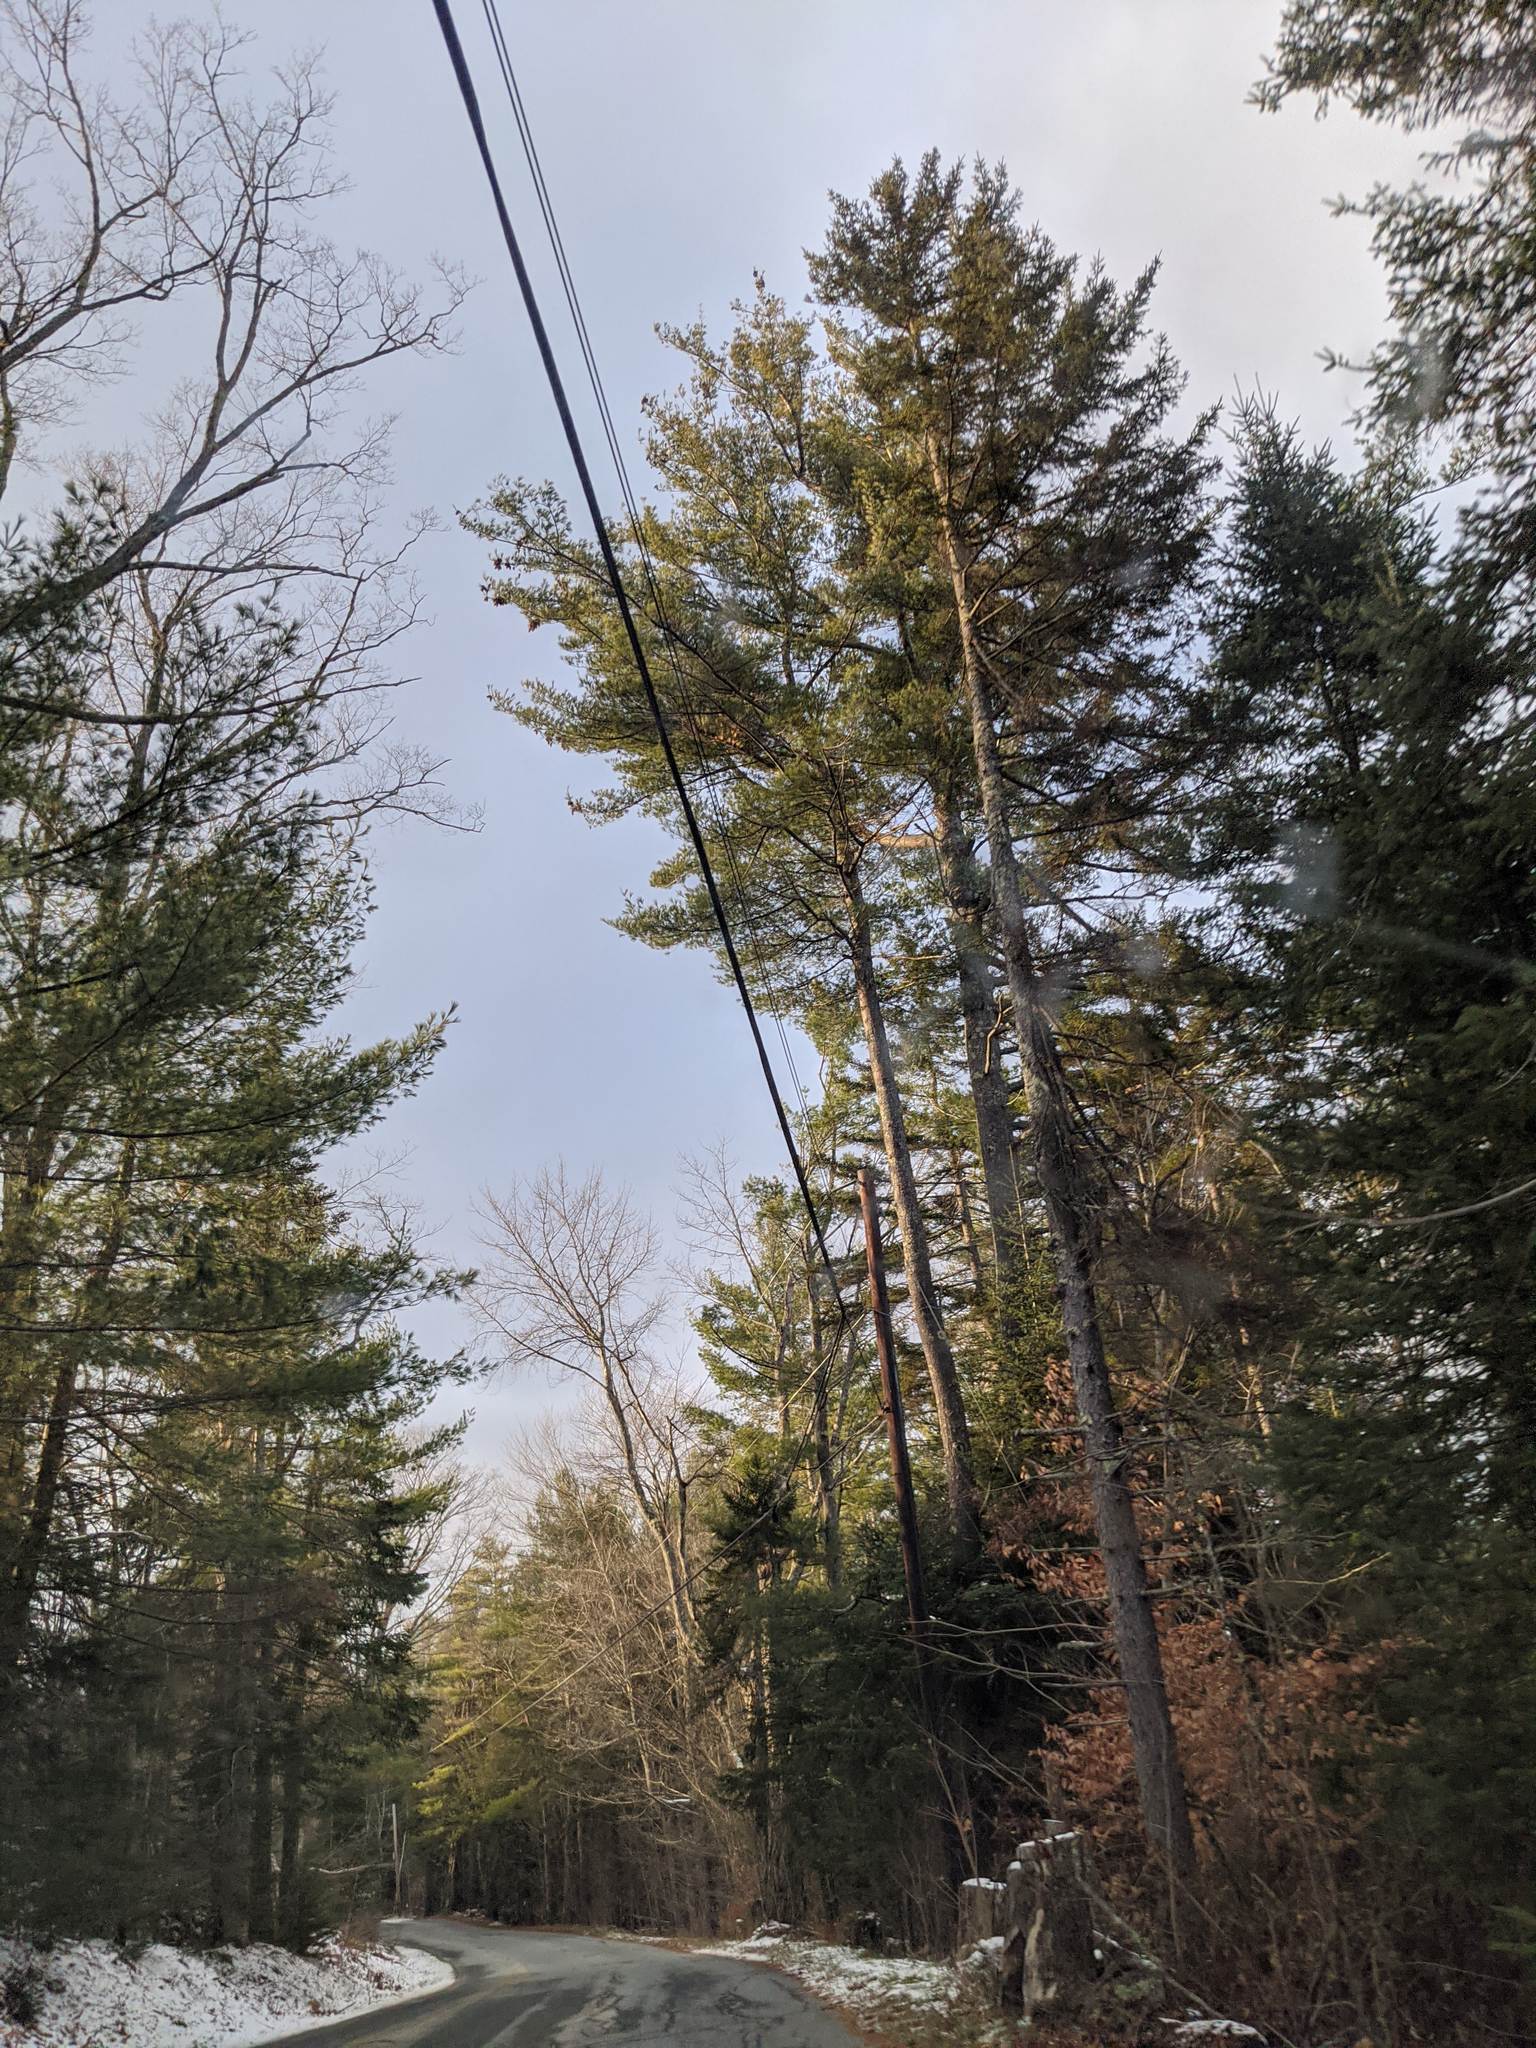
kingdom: Plantae
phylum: Tracheophyta
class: Pinopsida
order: Pinales
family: Pinaceae
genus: Pinus
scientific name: Pinus strobus
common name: Weymouth pine
